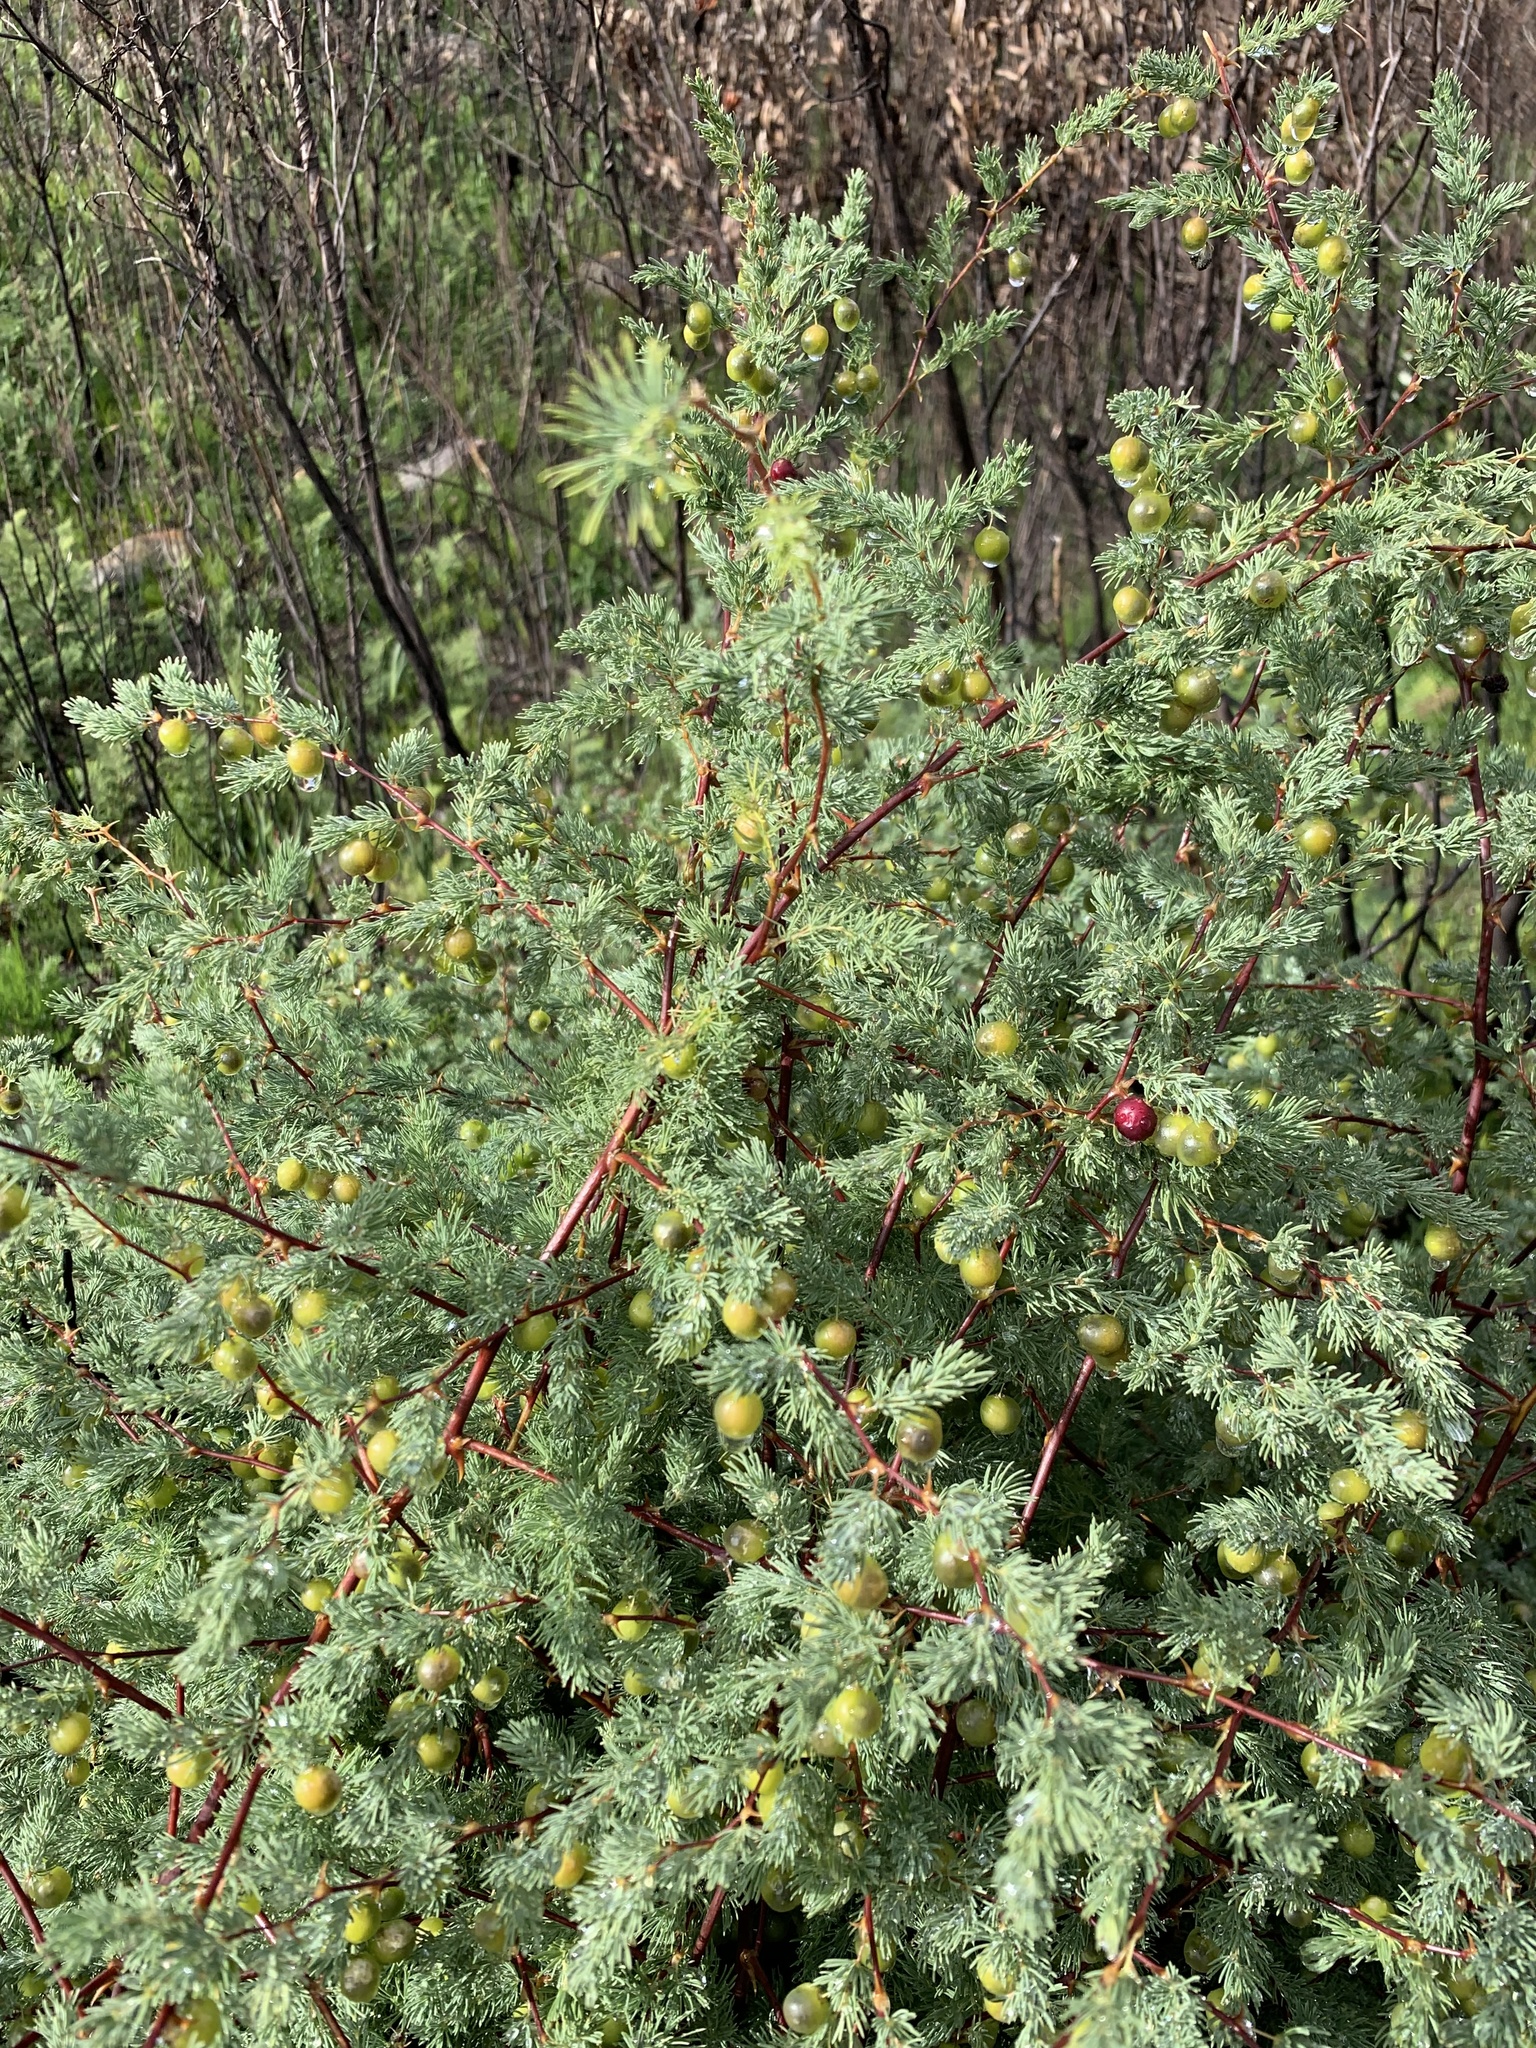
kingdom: Plantae
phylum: Tracheophyta
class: Liliopsida
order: Asparagales
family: Asparagaceae
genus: Asparagus
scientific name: Asparagus rubicundus
